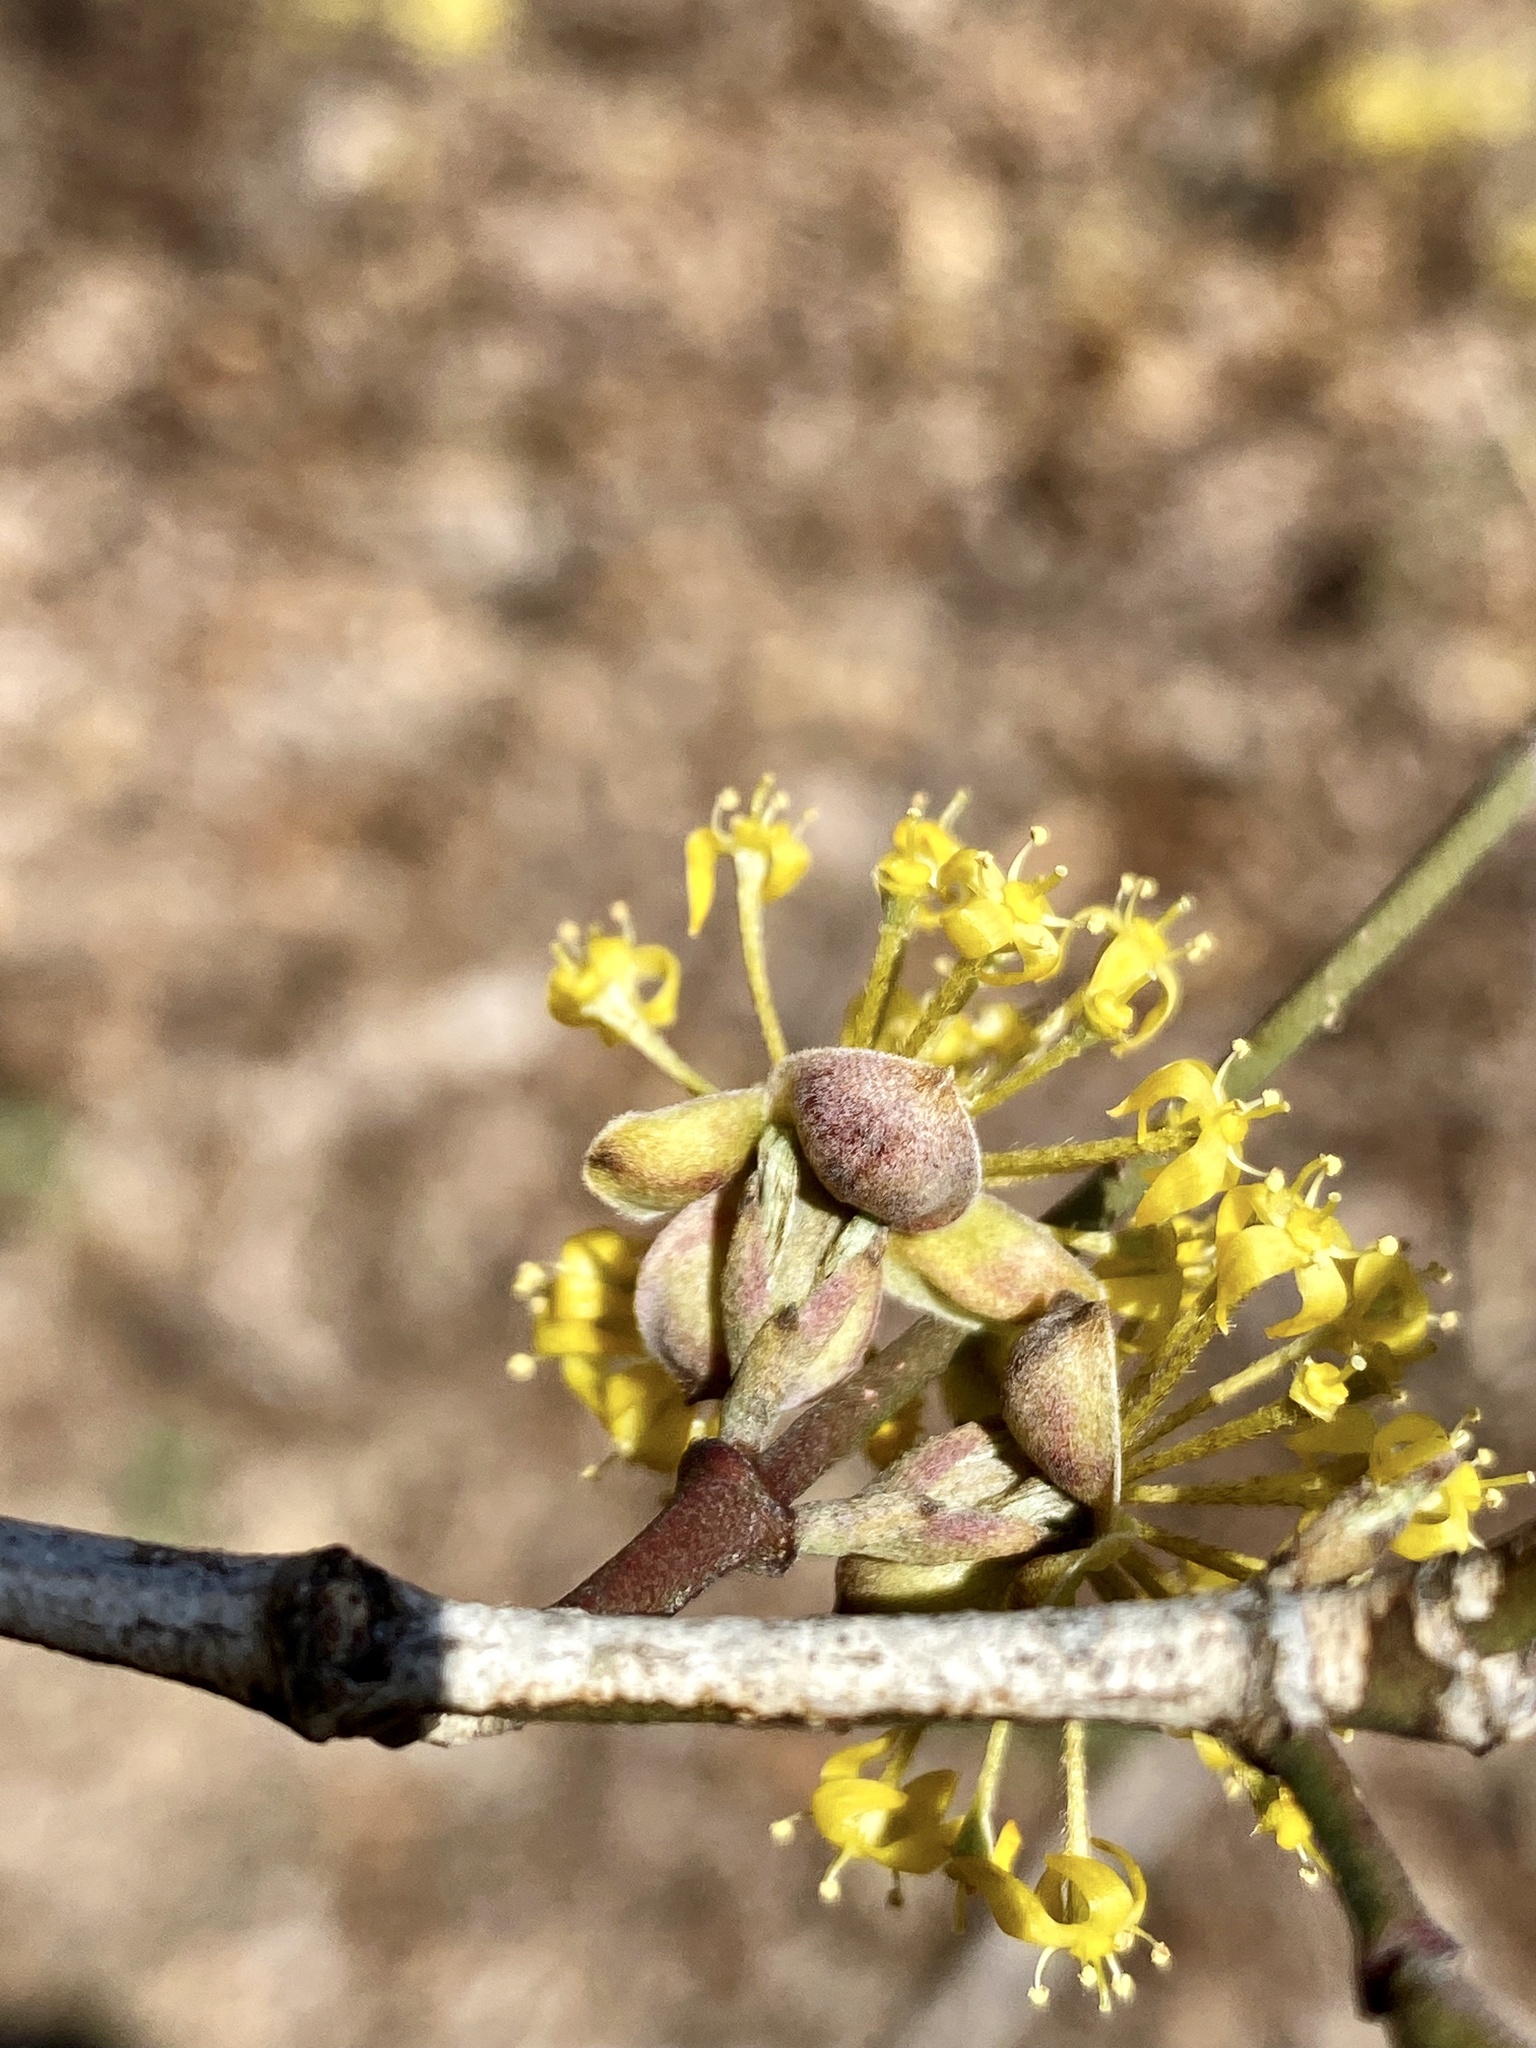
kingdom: Plantae
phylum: Tracheophyta
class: Magnoliopsida
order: Cornales
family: Cornaceae
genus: Cornus
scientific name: Cornus mas
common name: Cornelian-cherry
